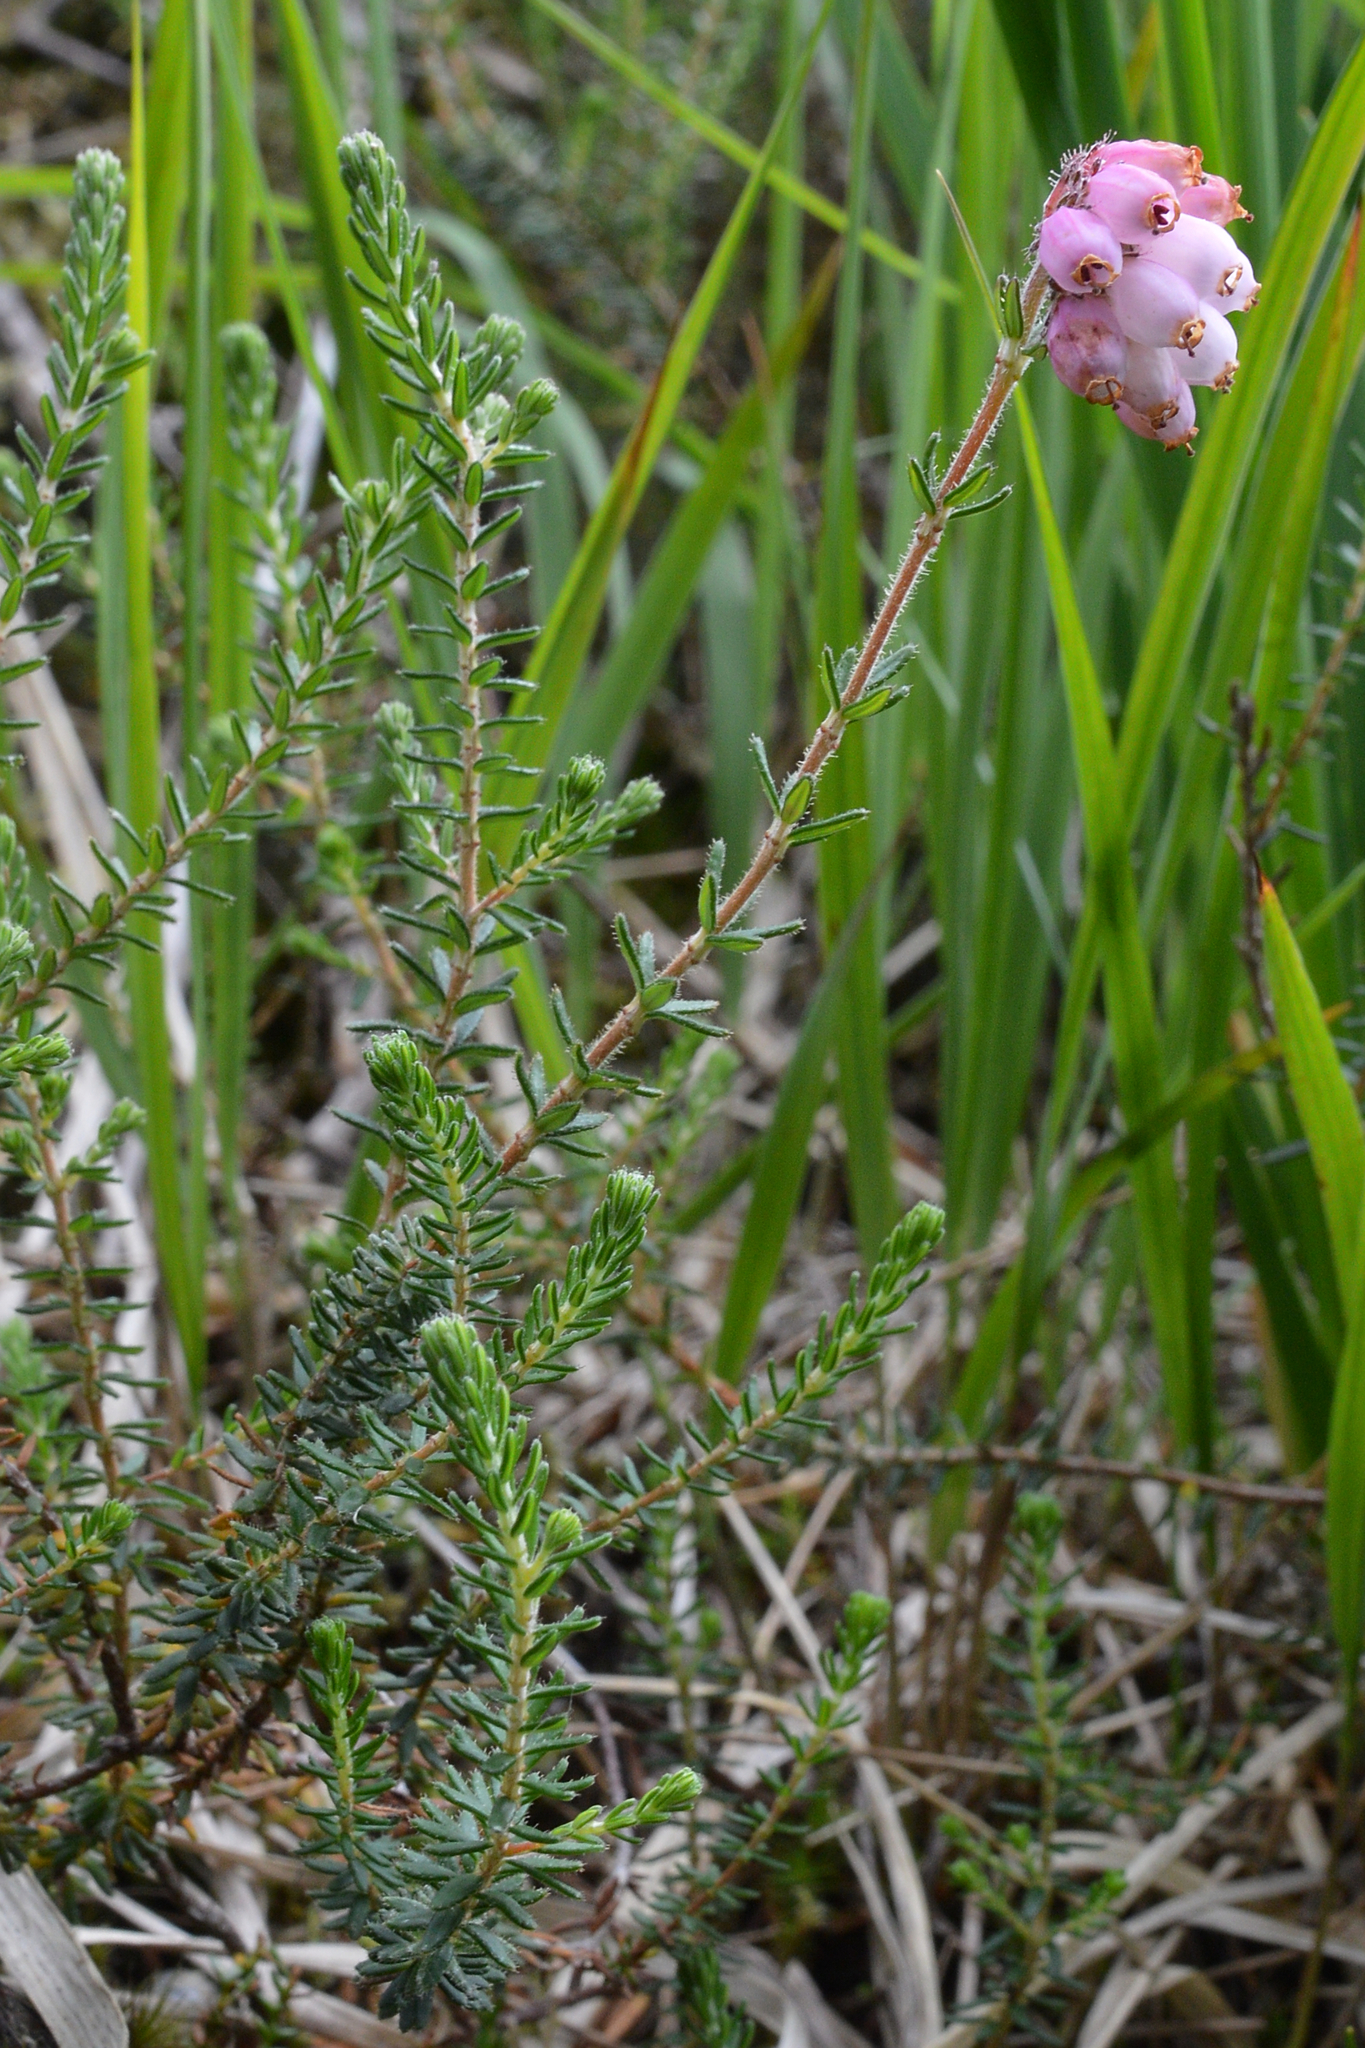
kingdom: Plantae
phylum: Tracheophyta
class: Magnoliopsida
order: Ericales
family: Ericaceae
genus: Erica
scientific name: Erica tetralix
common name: Cross-leaved heath
